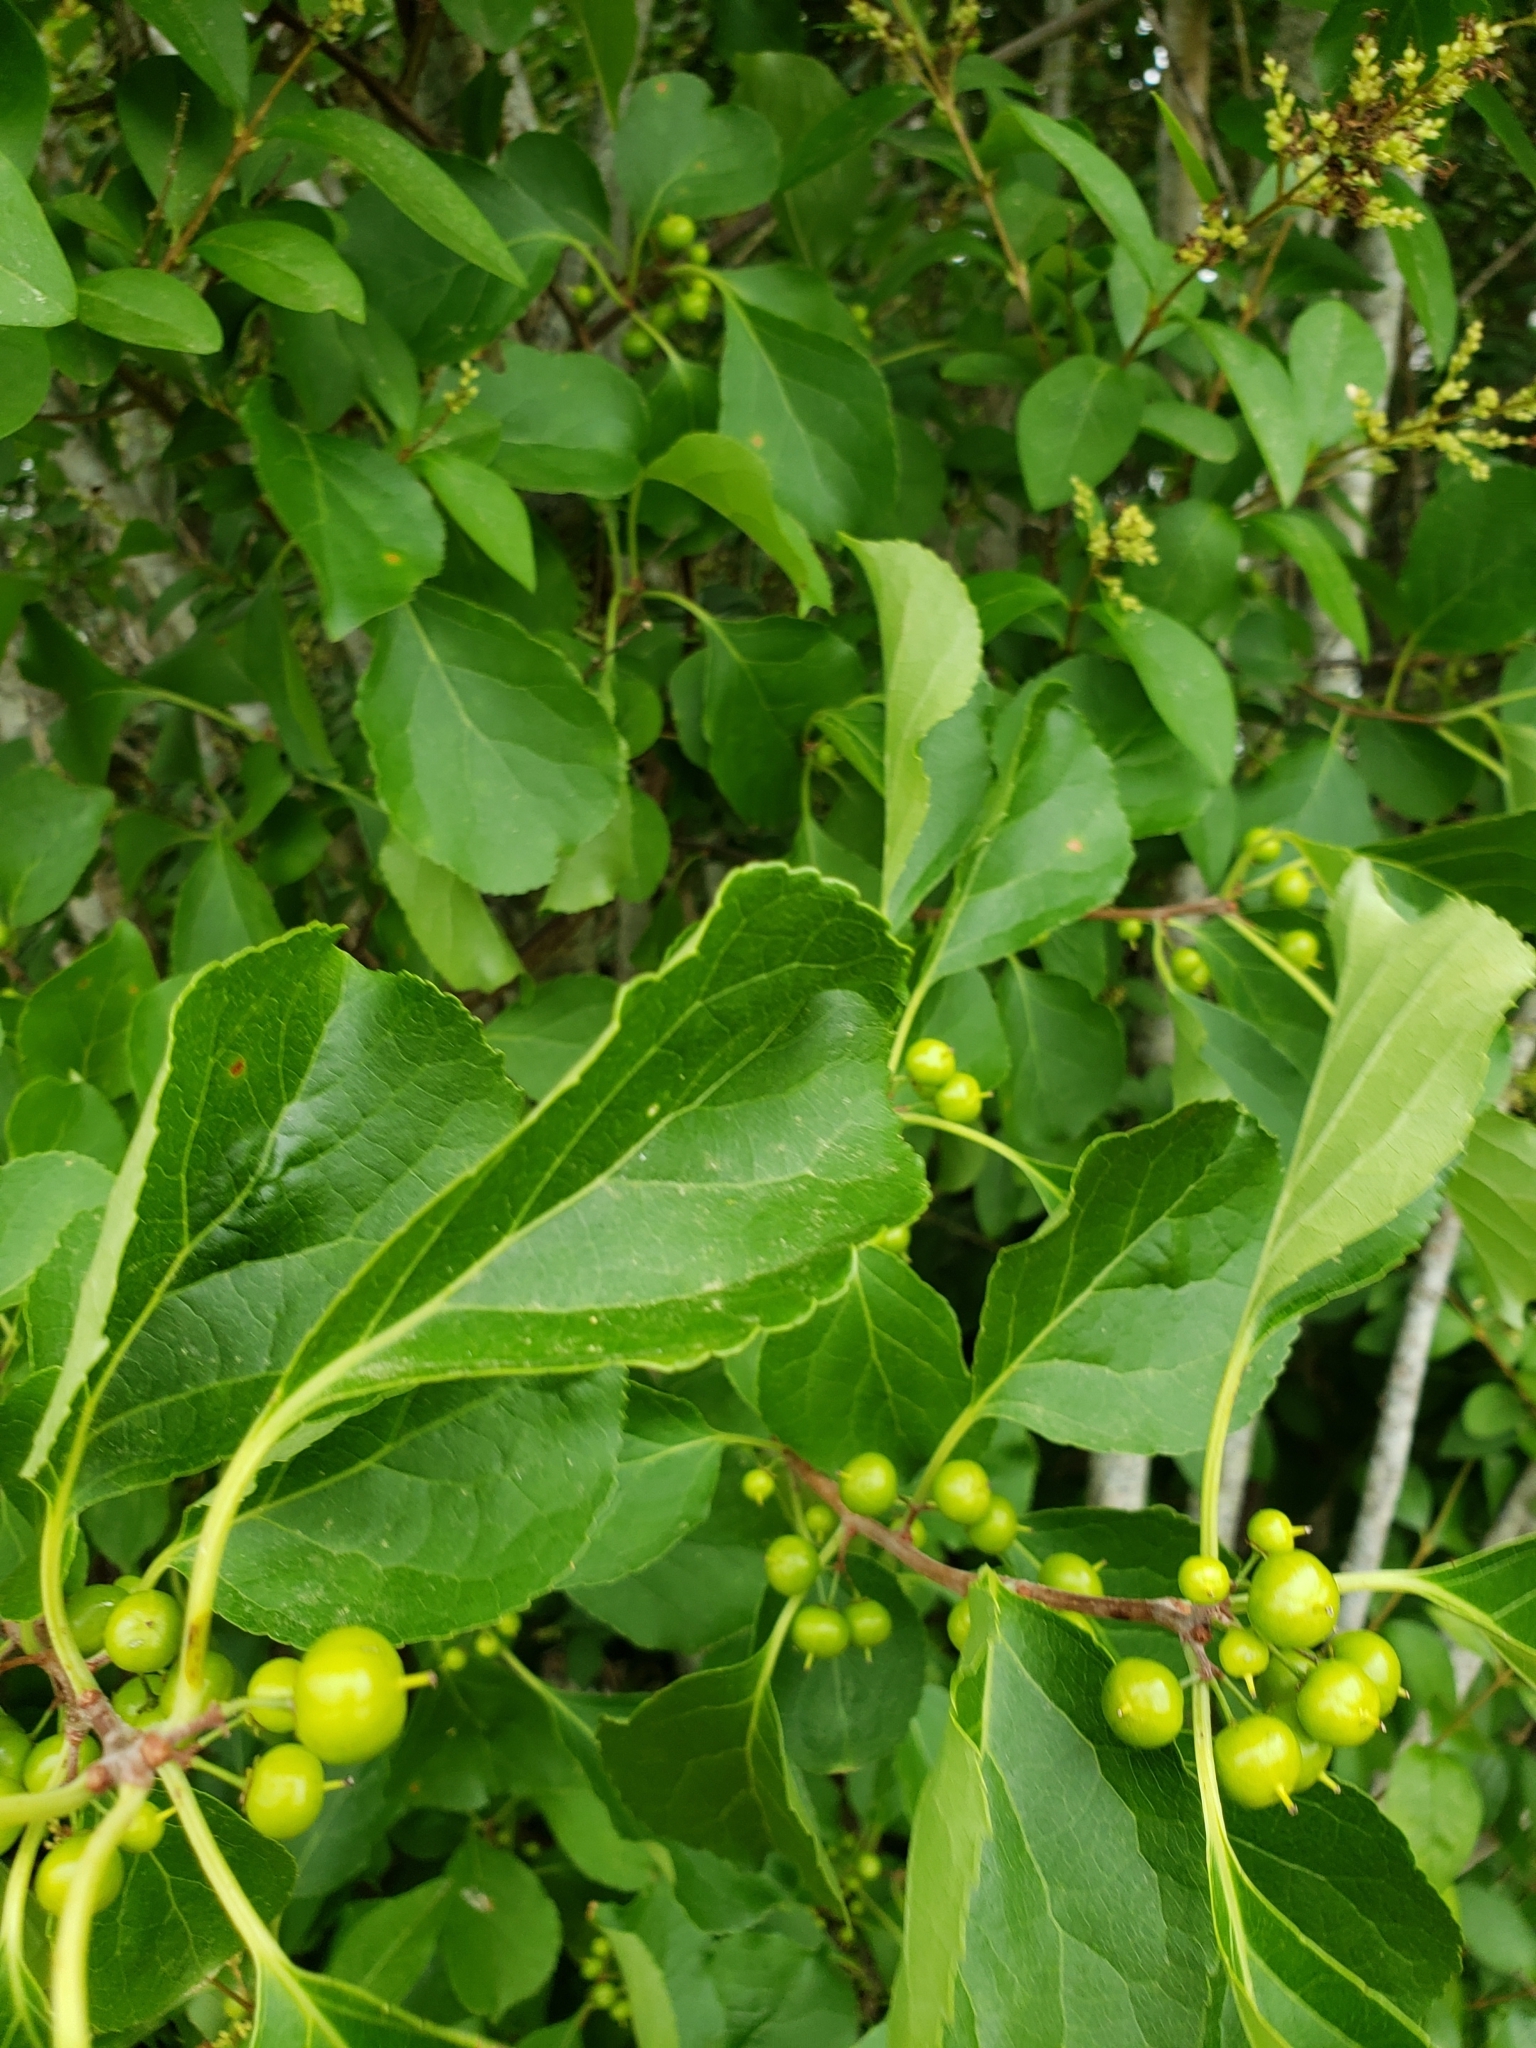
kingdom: Plantae
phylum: Tracheophyta
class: Magnoliopsida
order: Celastrales
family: Celastraceae
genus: Celastrus
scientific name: Celastrus orbiculatus
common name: Oriental bittersweet
